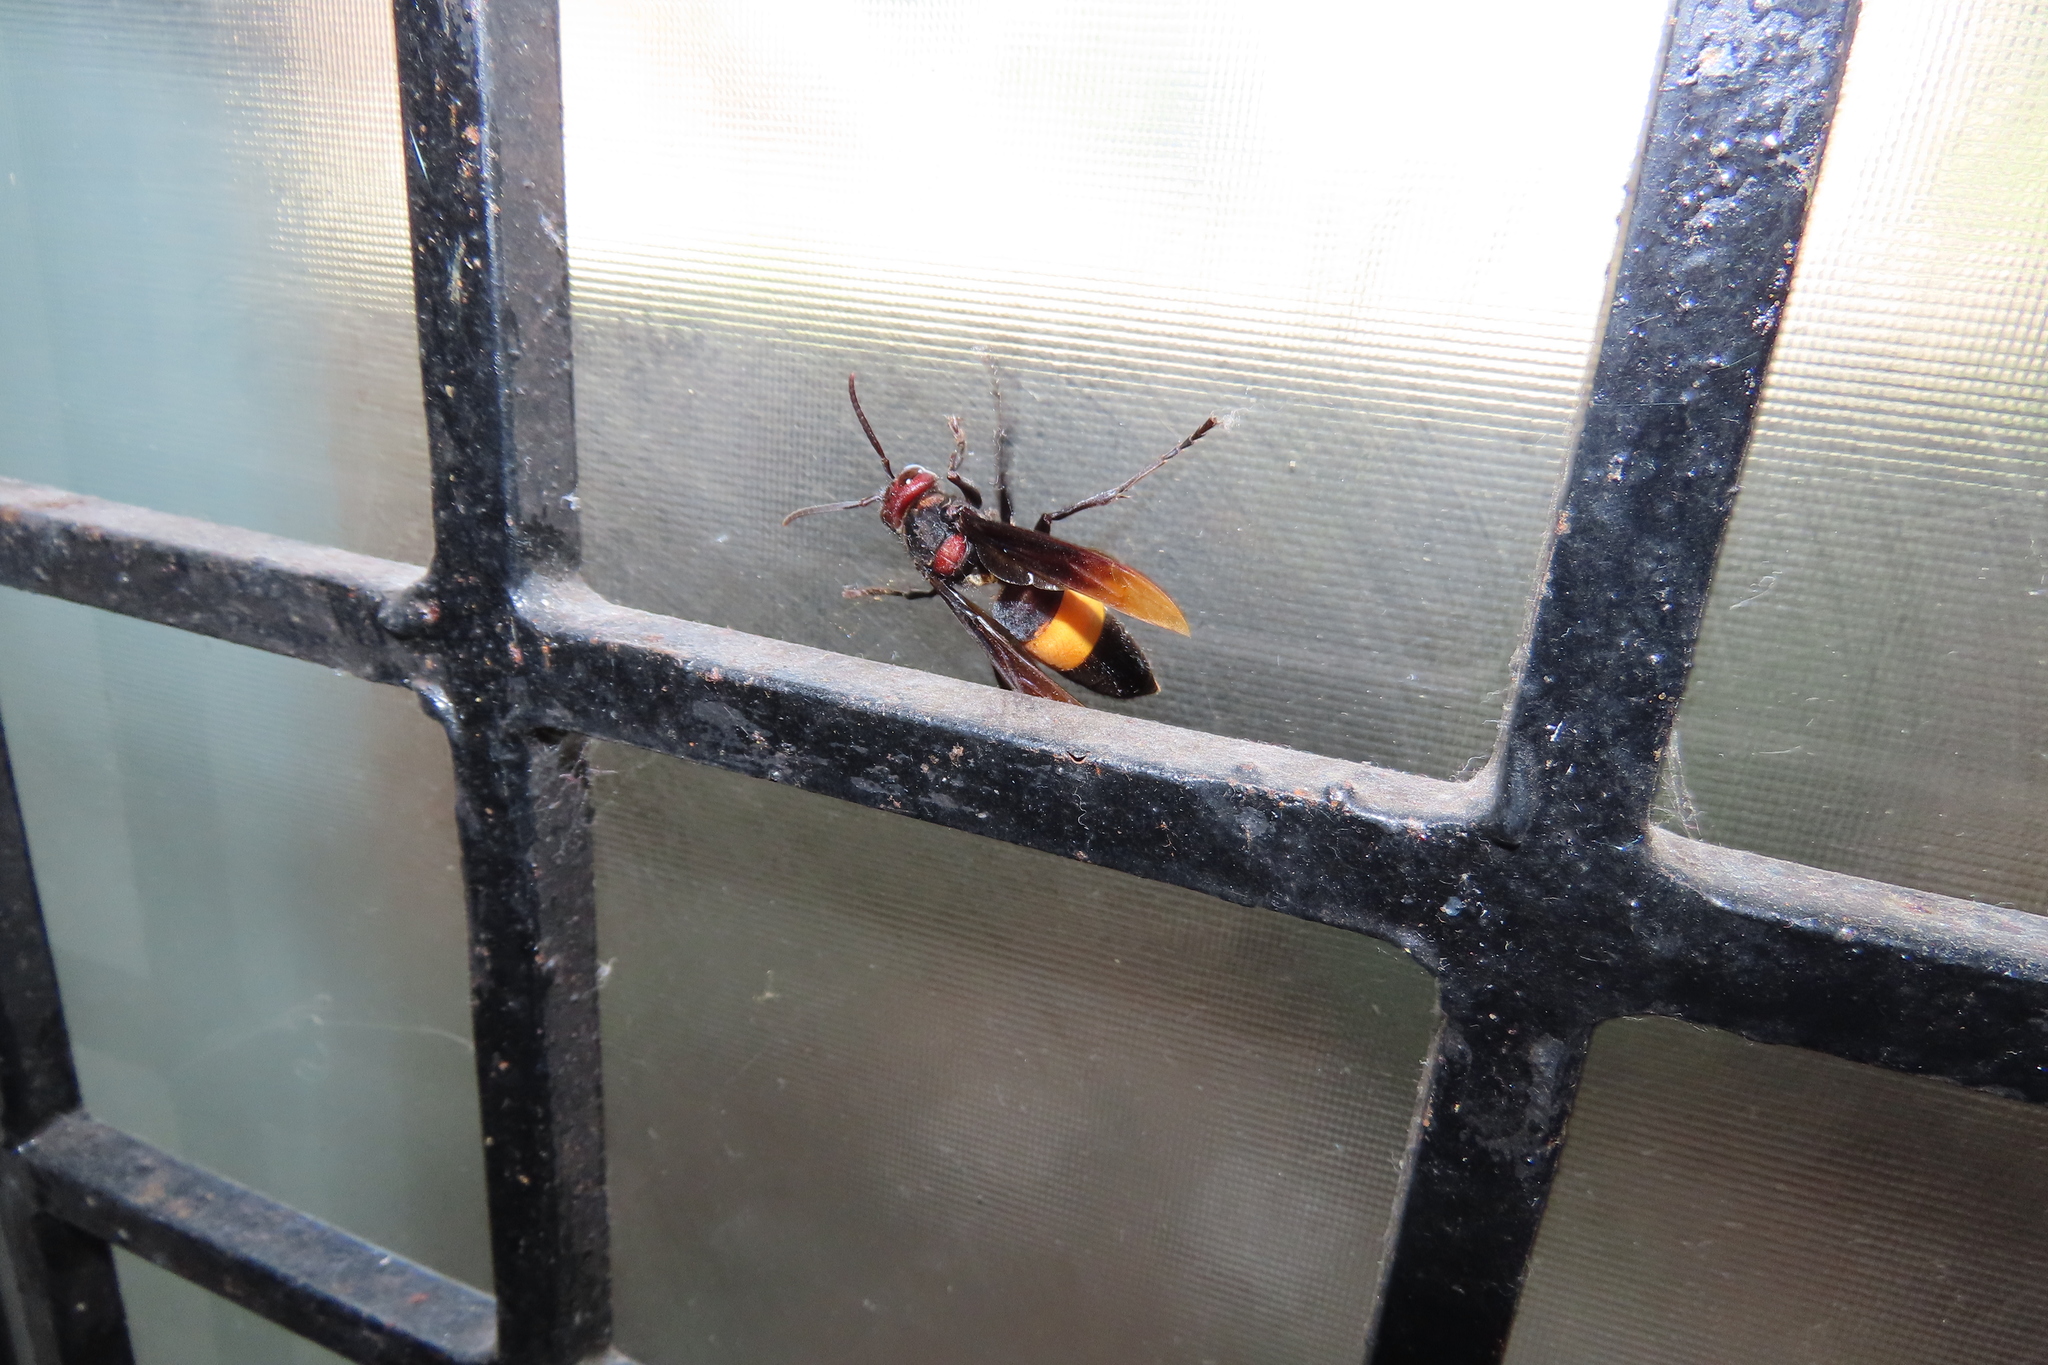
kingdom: Animalia
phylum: Arthropoda
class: Insecta
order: Hymenoptera
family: Vespidae
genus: Vespa
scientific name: Vespa tropica
